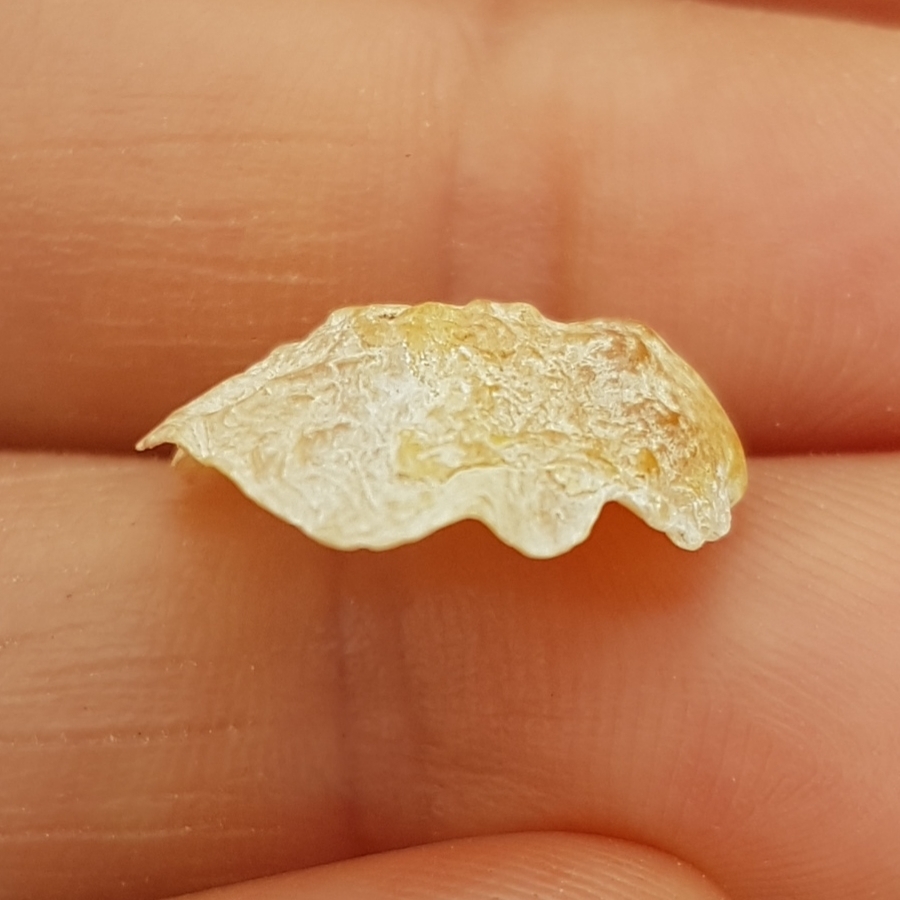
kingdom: Animalia
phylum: Mollusca
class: Bivalvia
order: Pectinida
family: Anomiidae
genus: Anomia
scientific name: Anomia ephippium
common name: Saddle oyster
